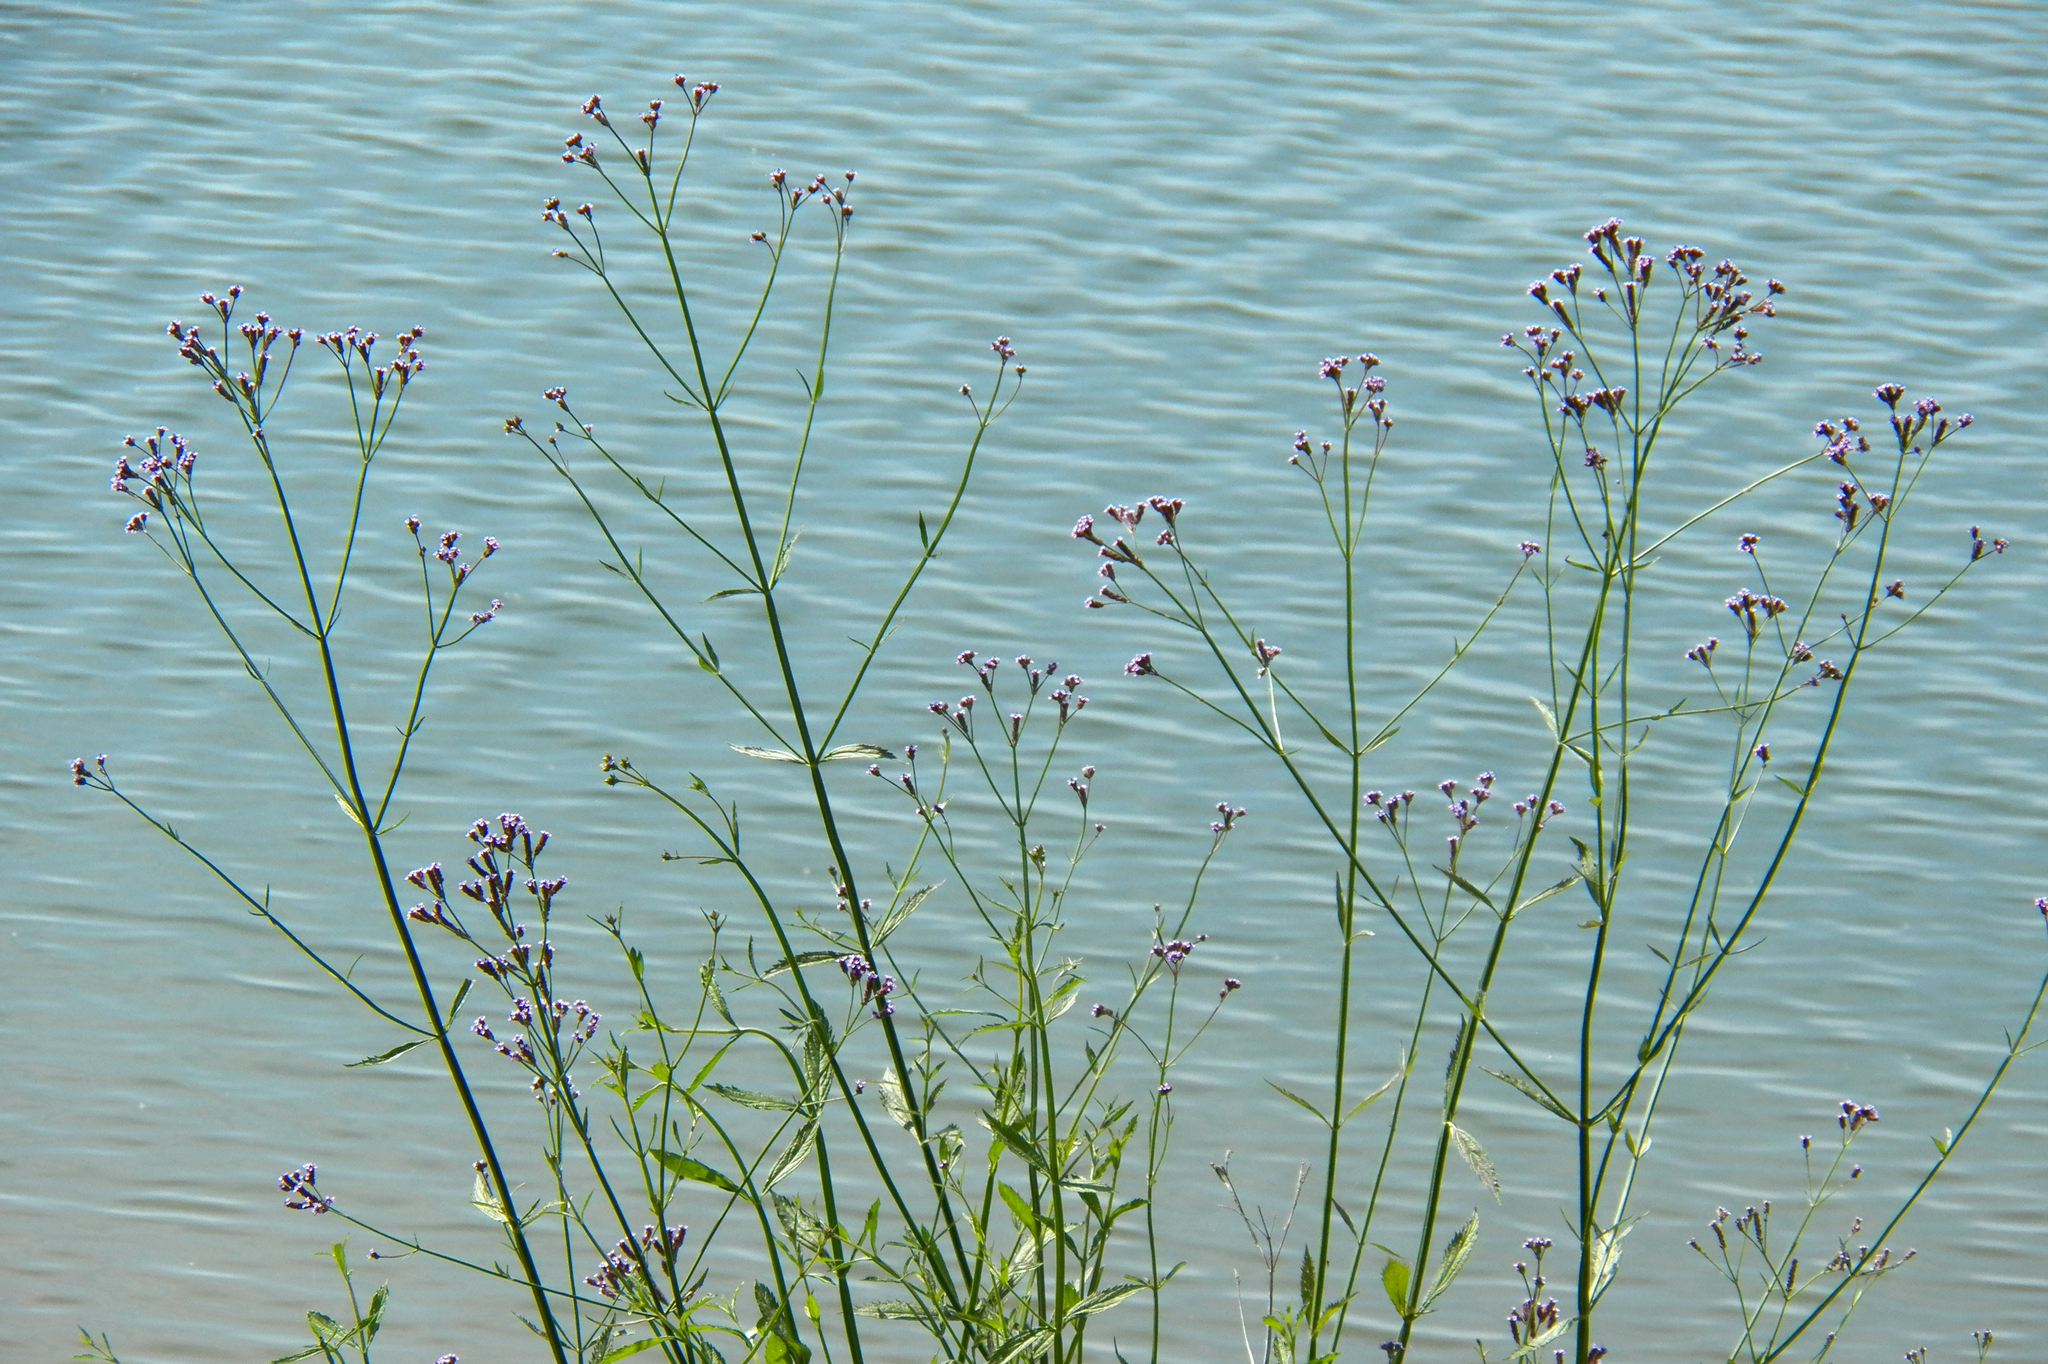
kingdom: Plantae
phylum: Tracheophyta
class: Magnoliopsida
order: Lamiales
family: Verbenaceae
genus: Verbena
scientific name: Verbena brasiliensis
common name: Brazilian vervain
